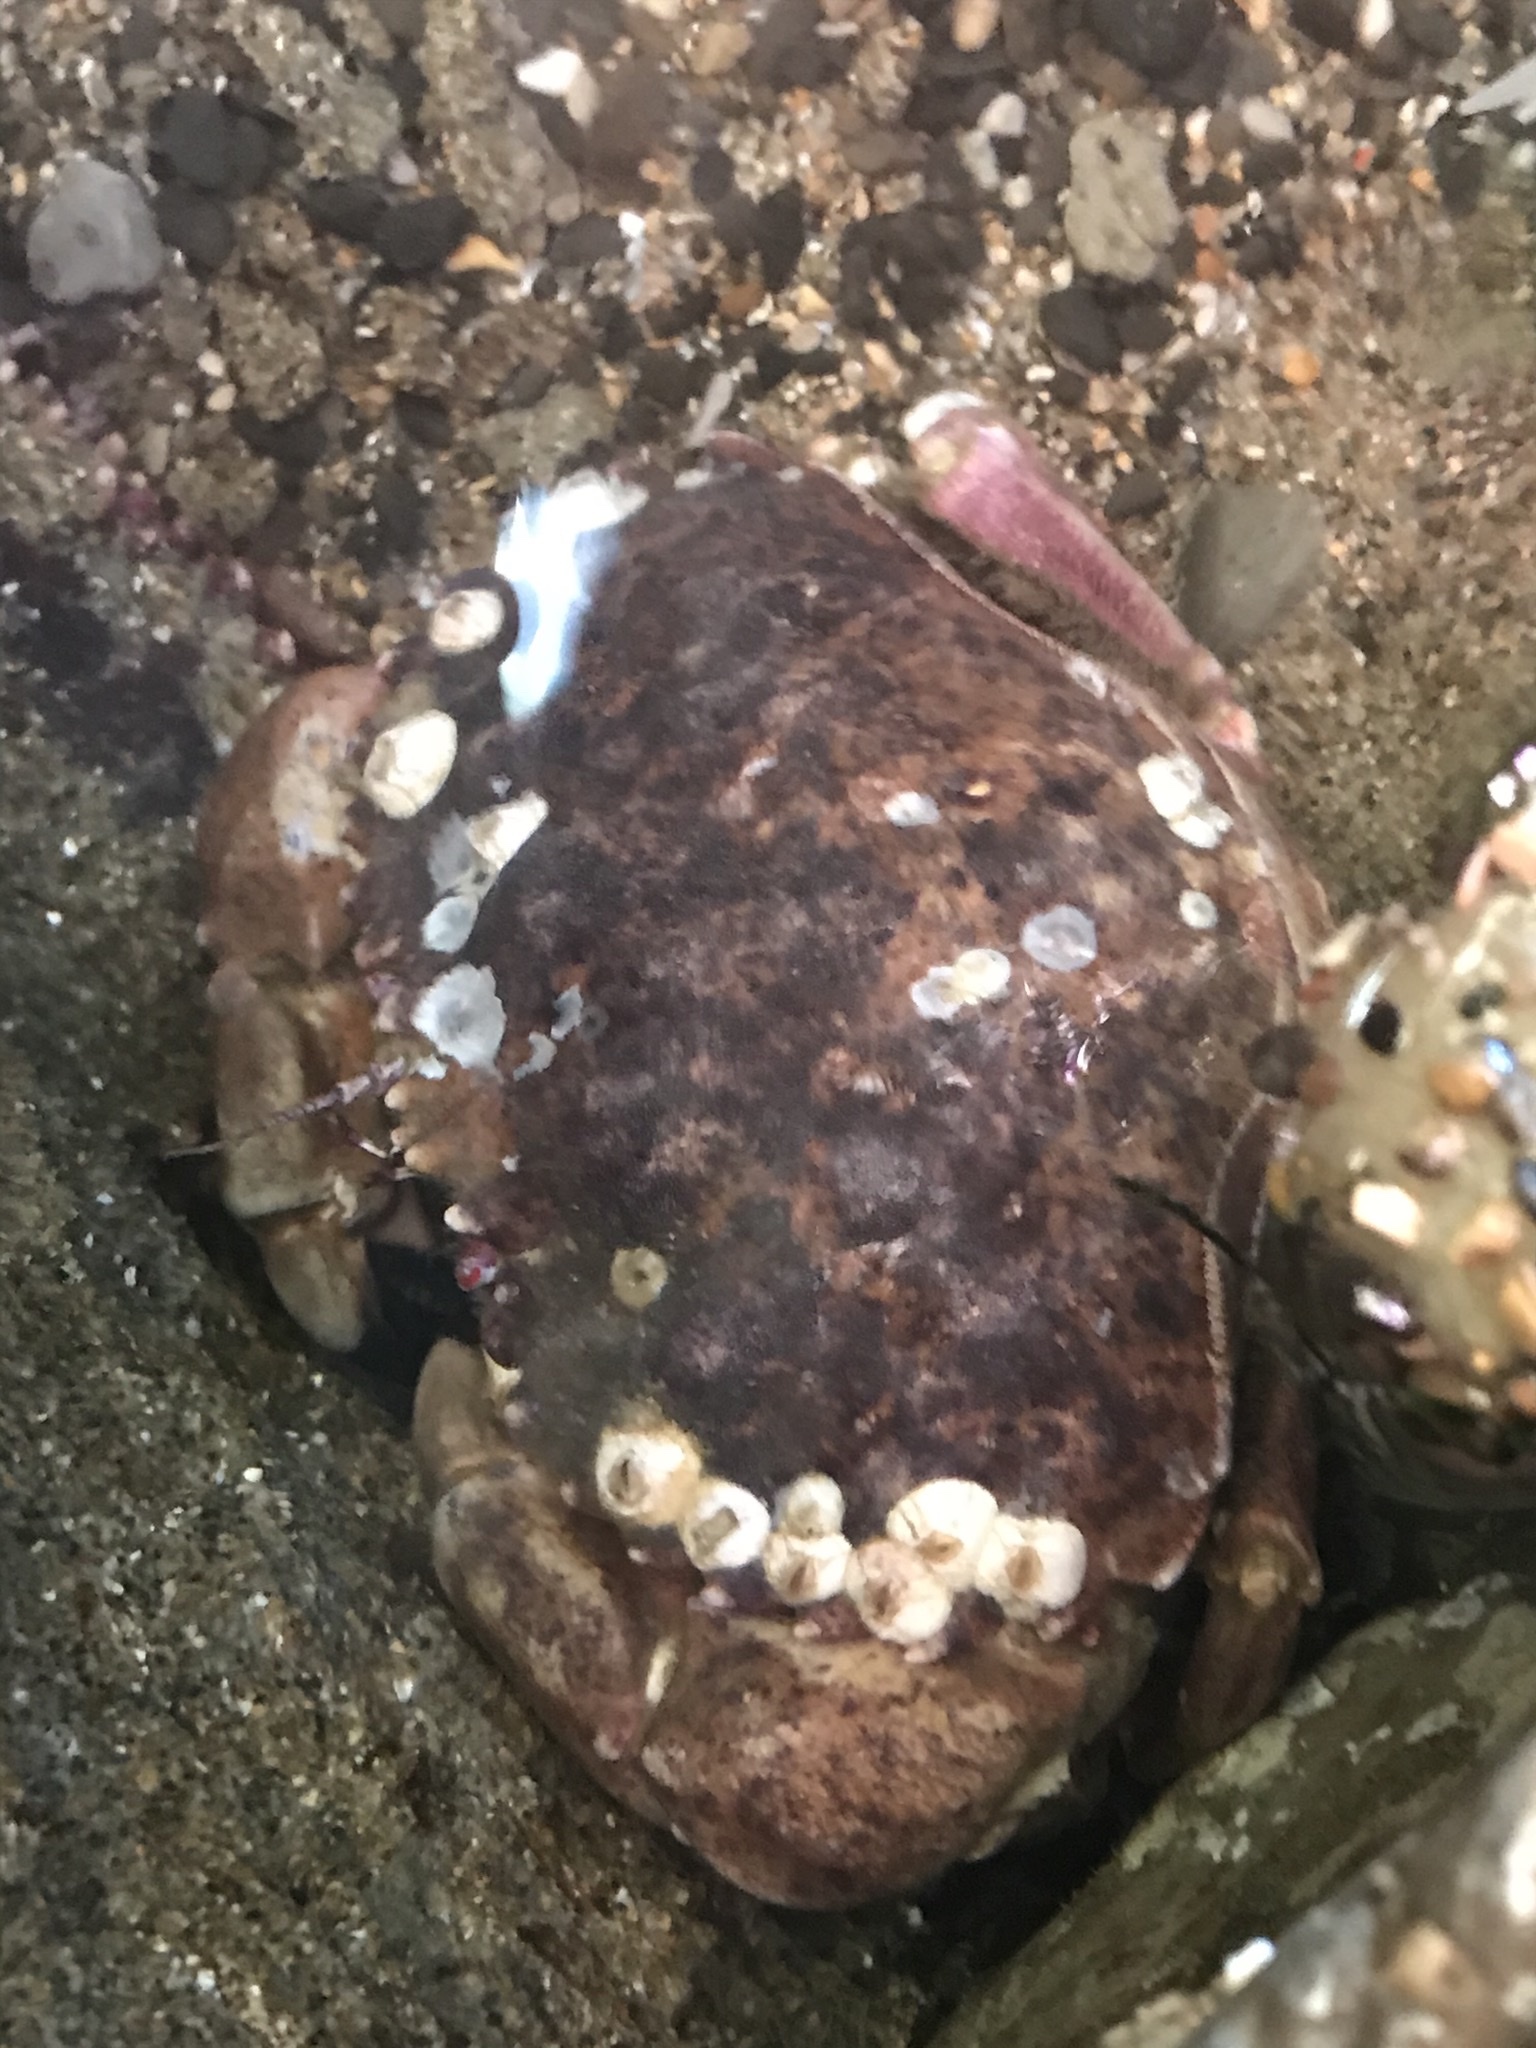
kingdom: Animalia
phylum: Arthropoda
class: Malacostraca
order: Decapoda
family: Cancridae
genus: Romaleon
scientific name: Romaleon antennarium
